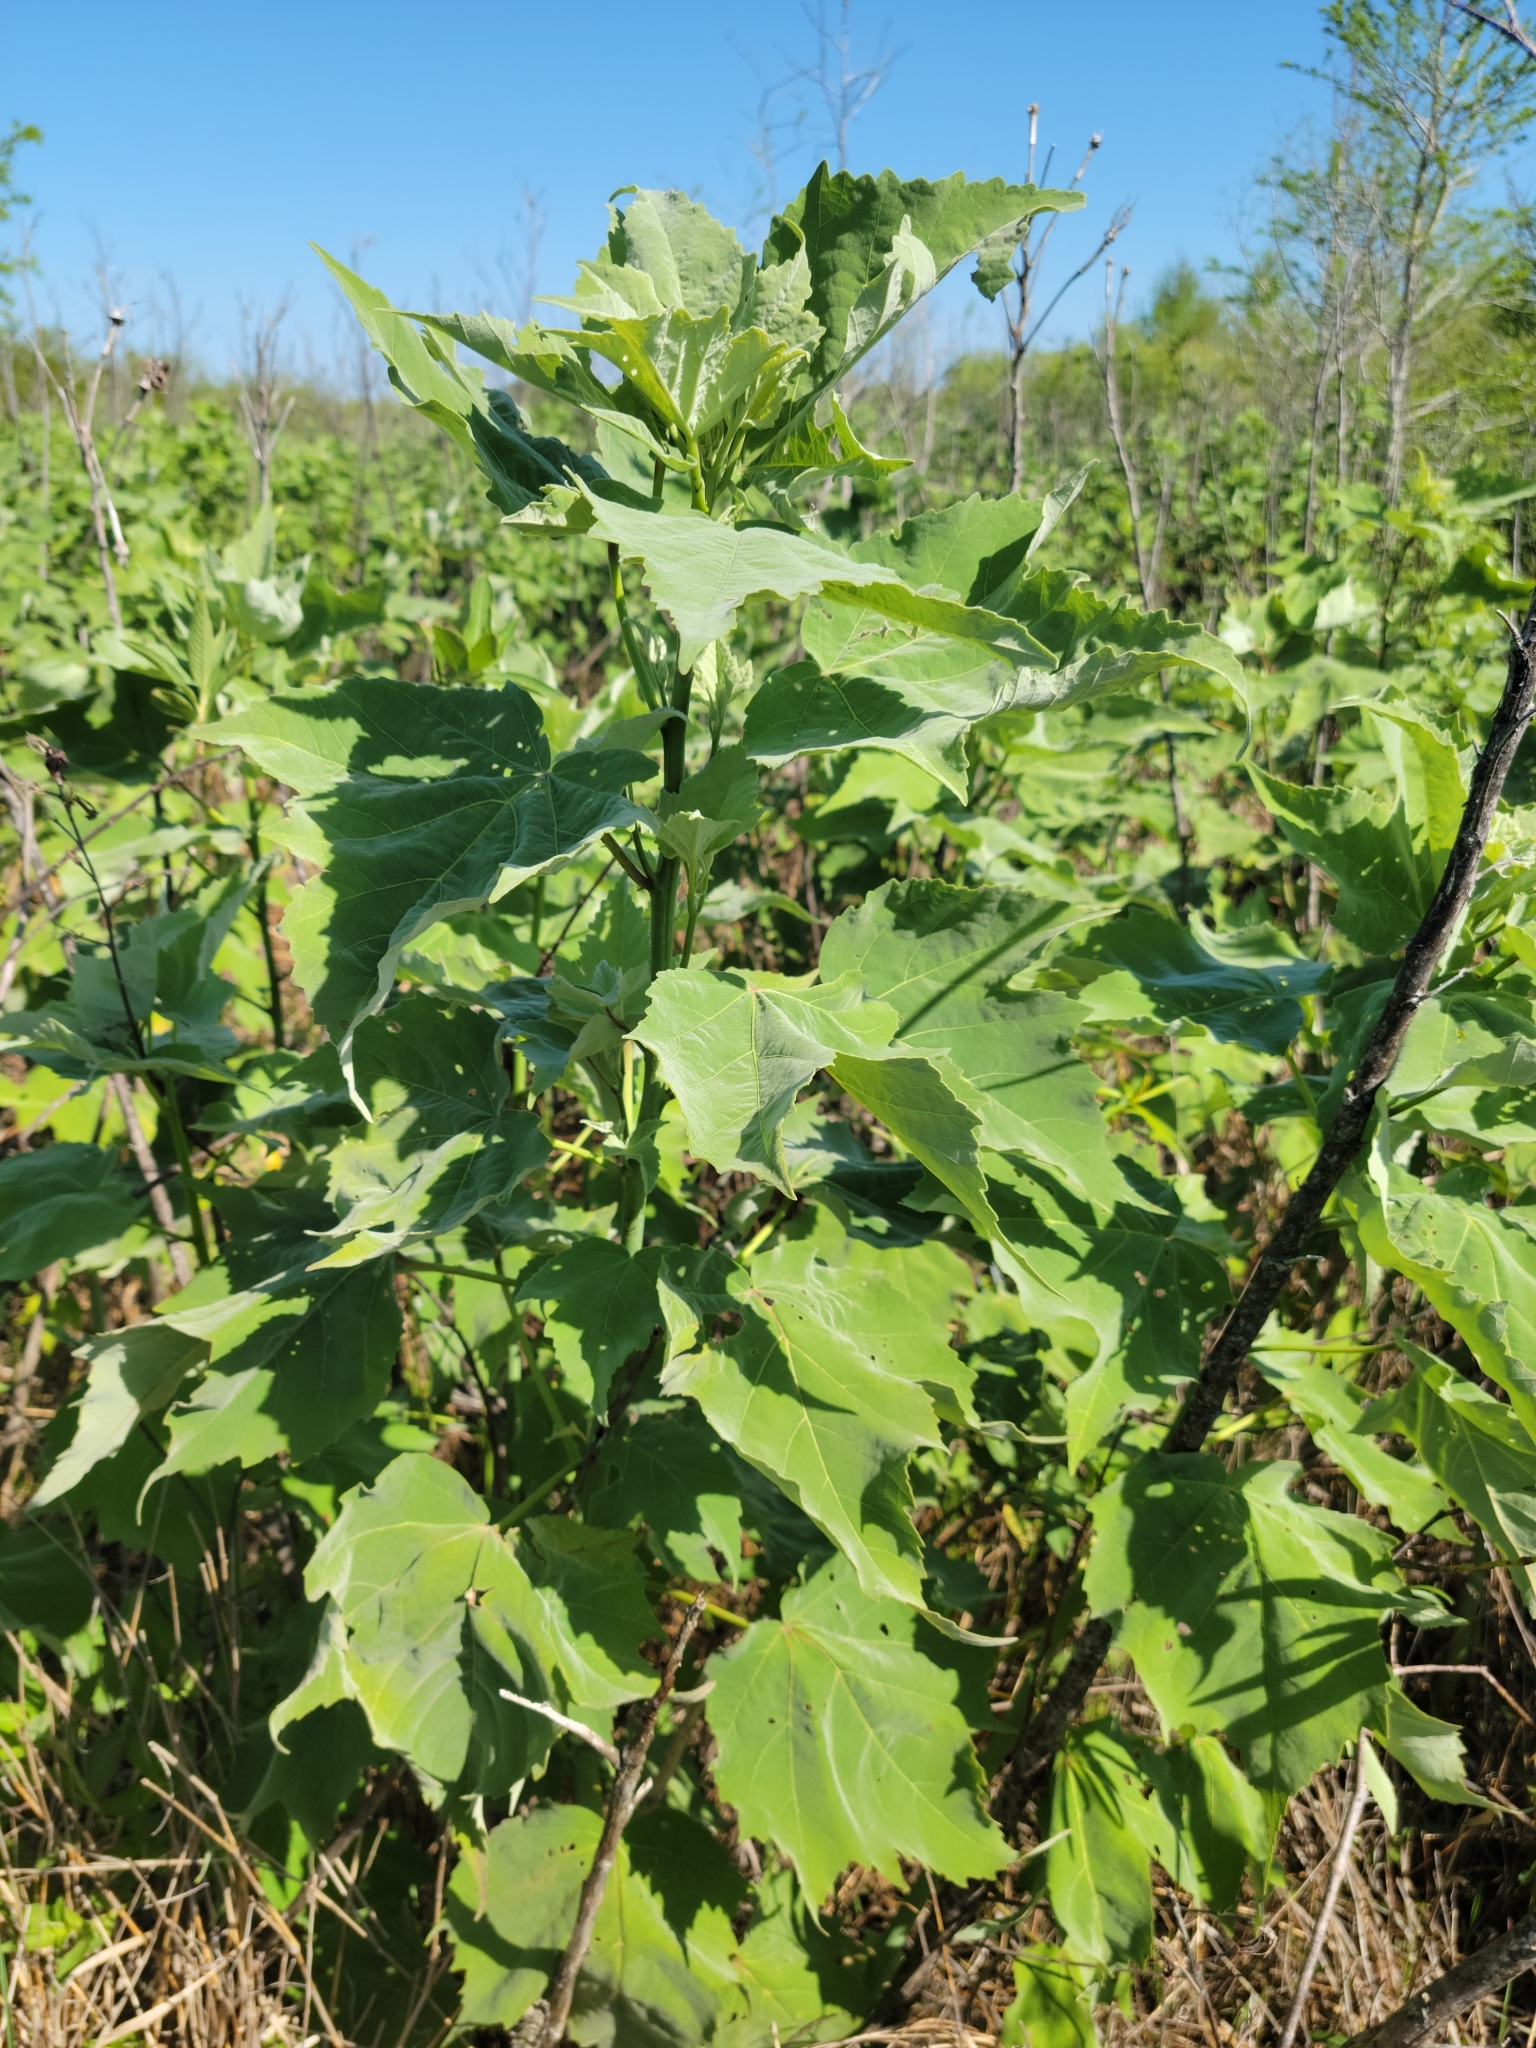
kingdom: Plantae
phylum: Tracheophyta
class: Magnoliopsida
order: Malvales
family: Malvaceae
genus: Hibiscus
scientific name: Hibiscus grandiflorus
